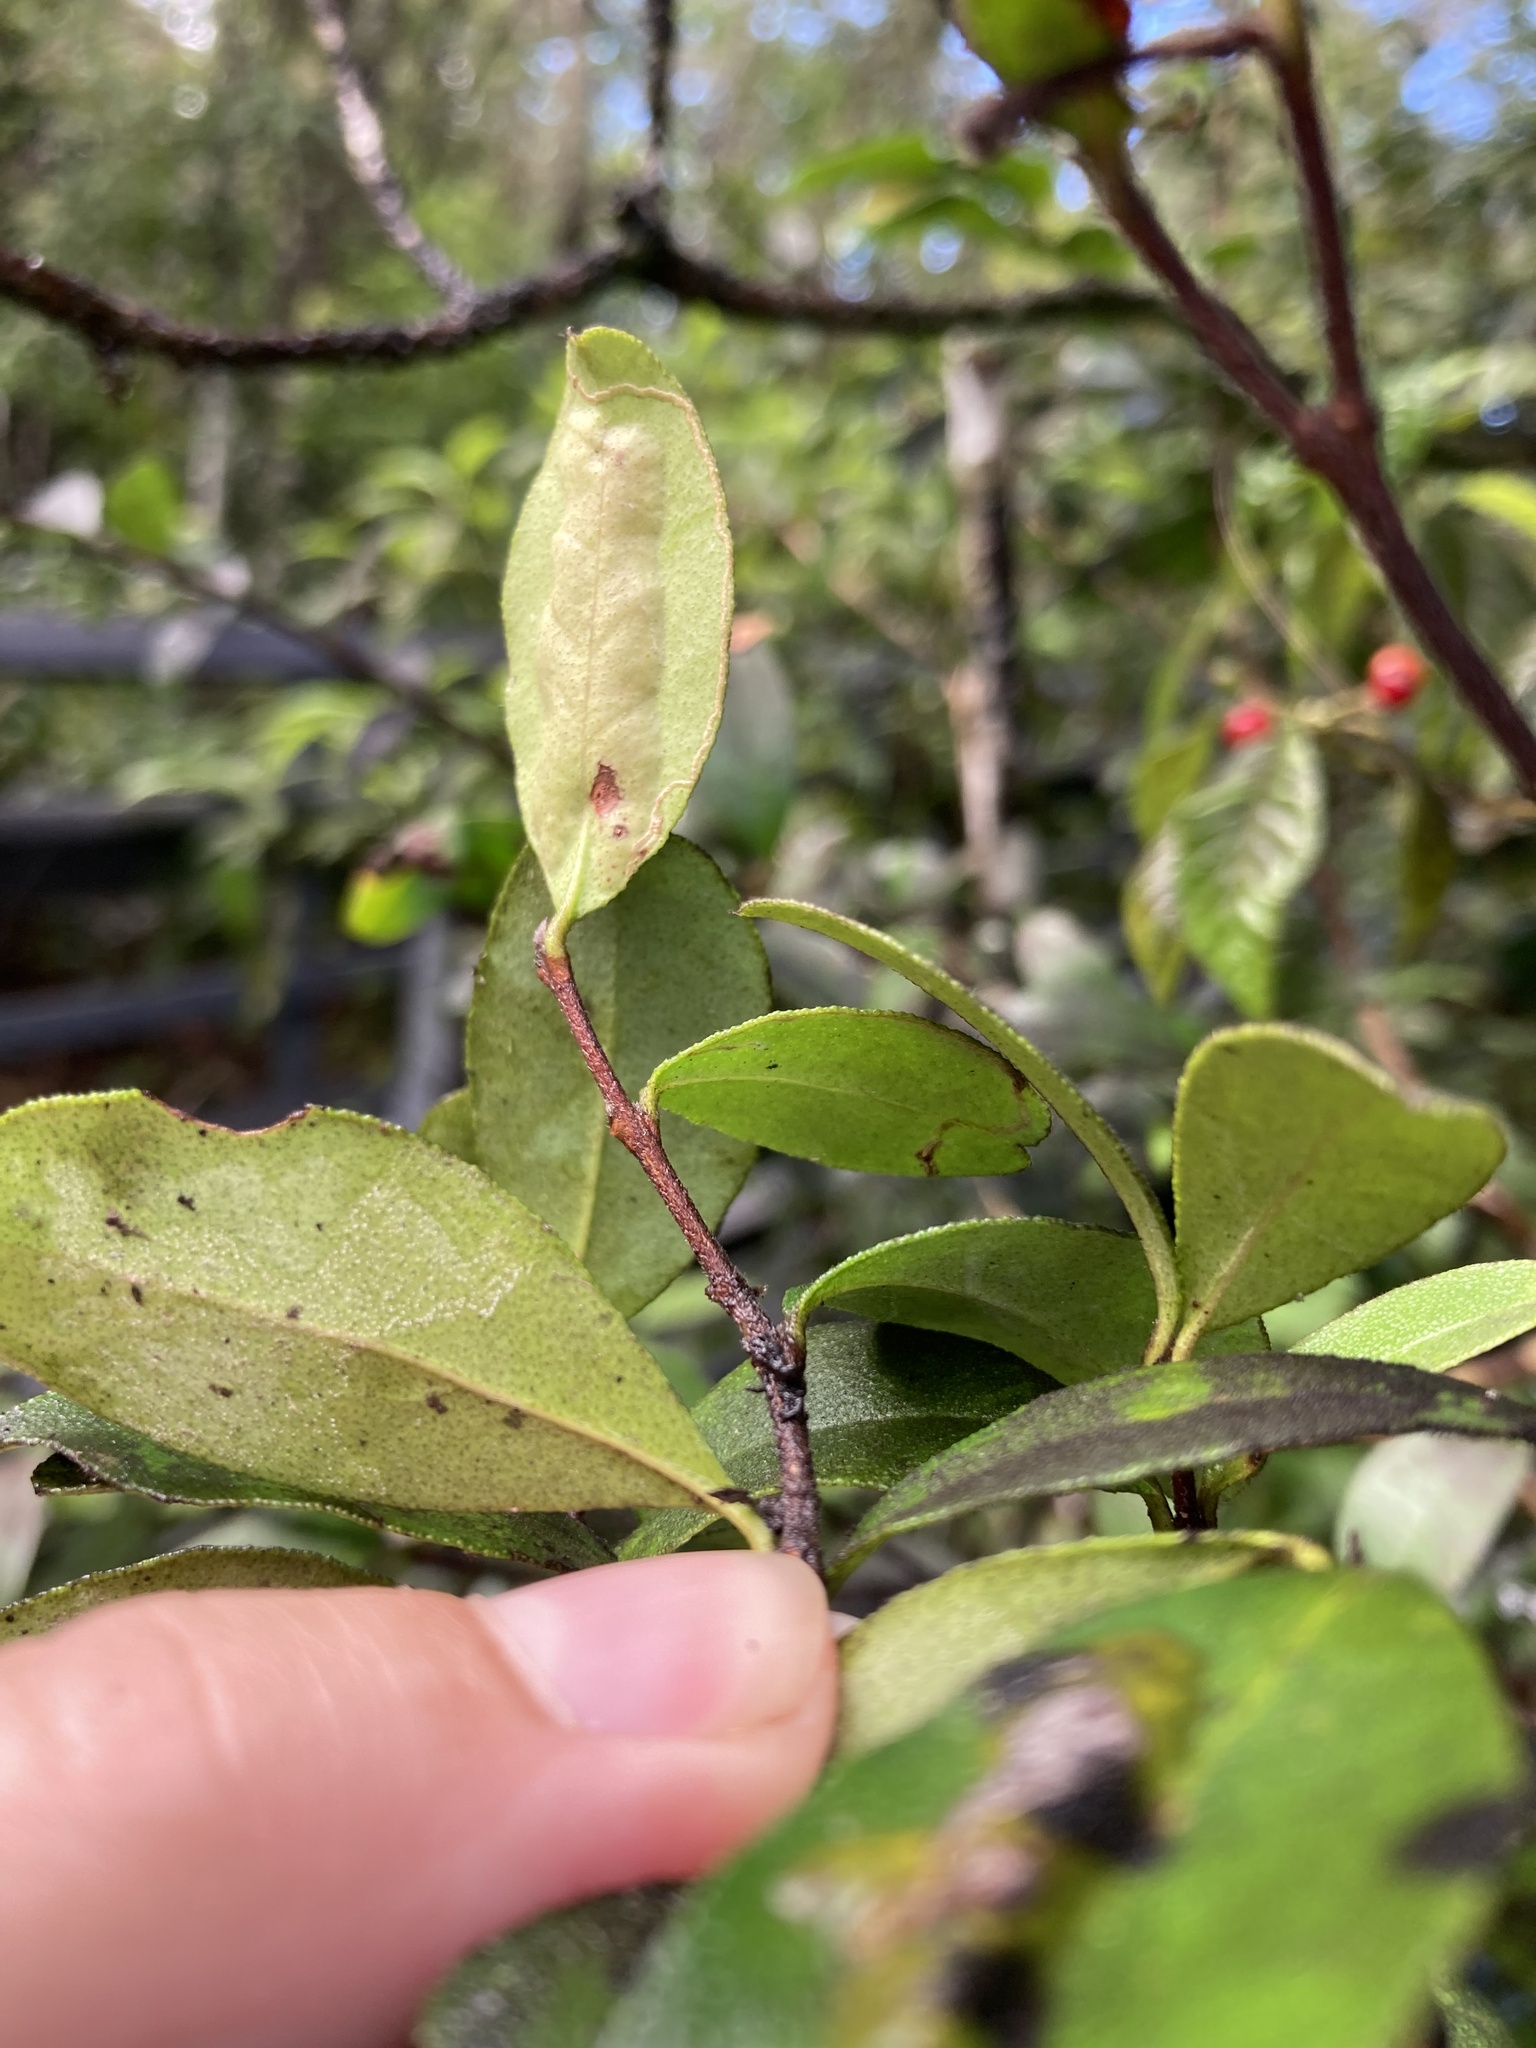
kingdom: Plantae
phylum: Tracheophyta
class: Magnoliopsida
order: Myrtales
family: Myrtaceae
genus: Myrcianthes
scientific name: Myrcianthes fragrans
